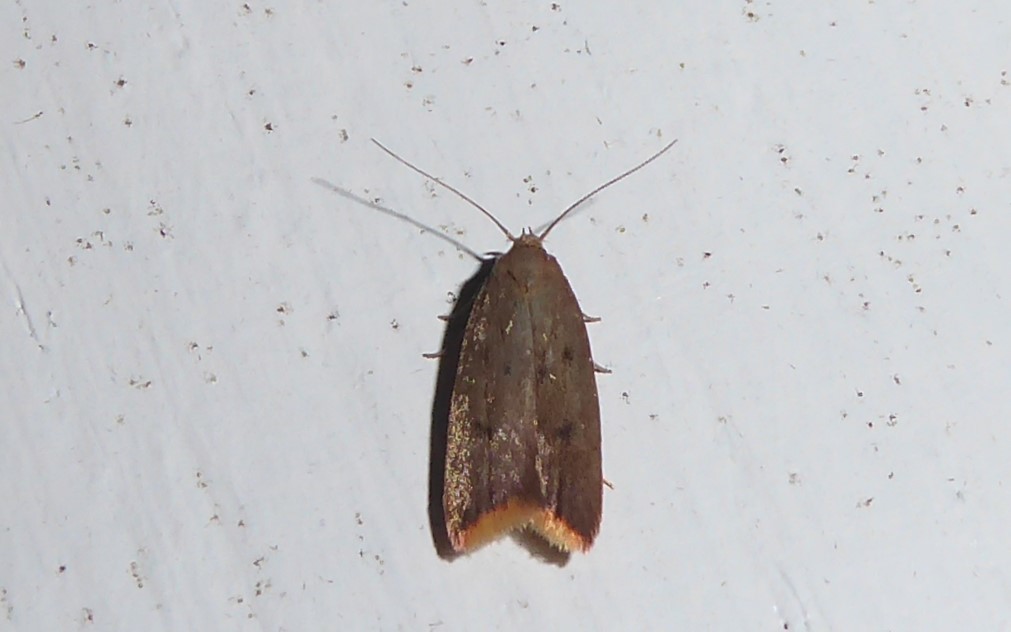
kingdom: Animalia
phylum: Arthropoda
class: Insecta
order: Lepidoptera
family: Oecophoridae
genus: Tachystola
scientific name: Tachystola acroxantha
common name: Ruddy streak
